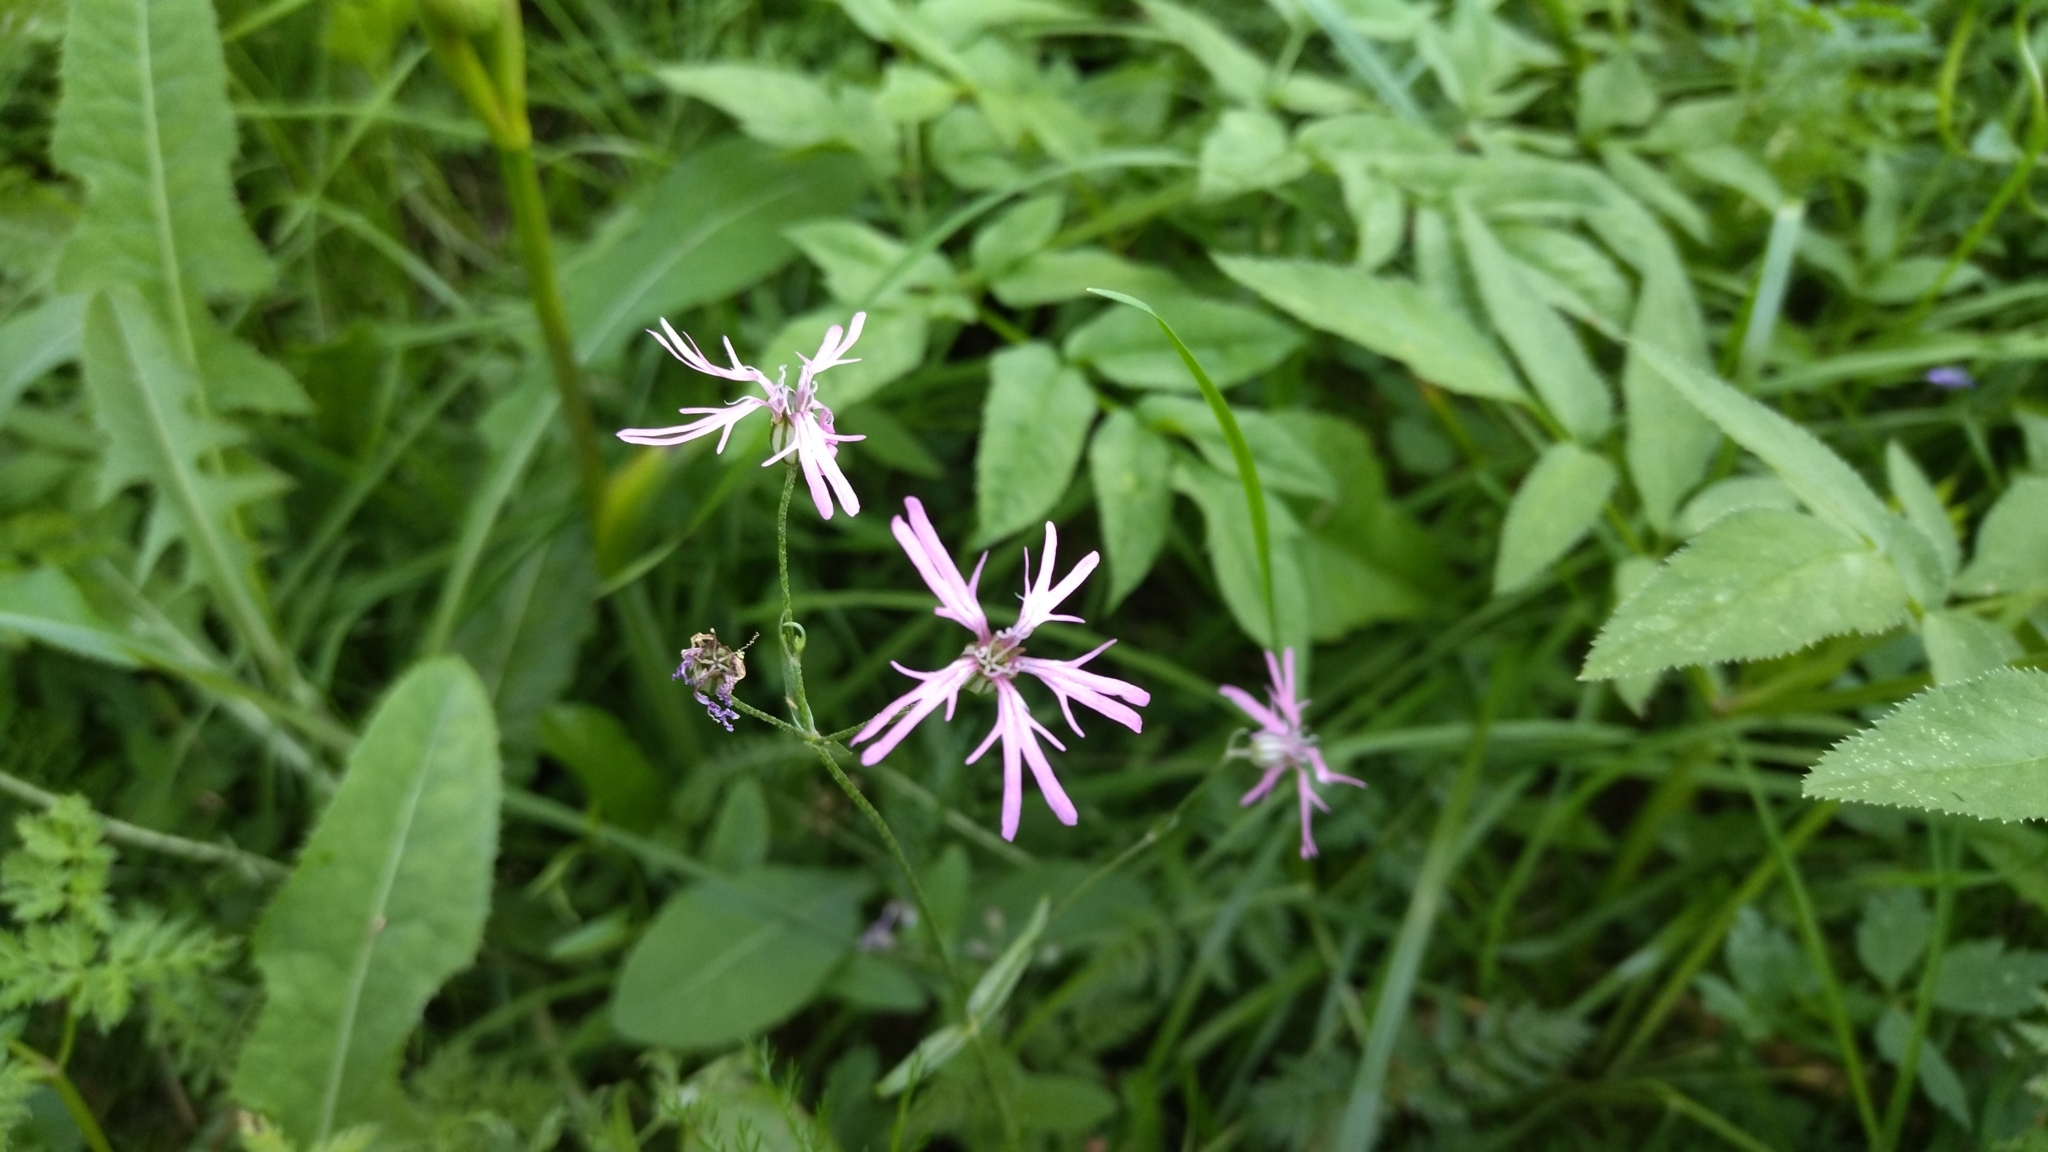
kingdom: Plantae
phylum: Tracheophyta
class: Magnoliopsida
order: Caryophyllales
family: Caryophyllaceae
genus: Silene
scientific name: Silene flos-cuculi
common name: Ragged-robin
